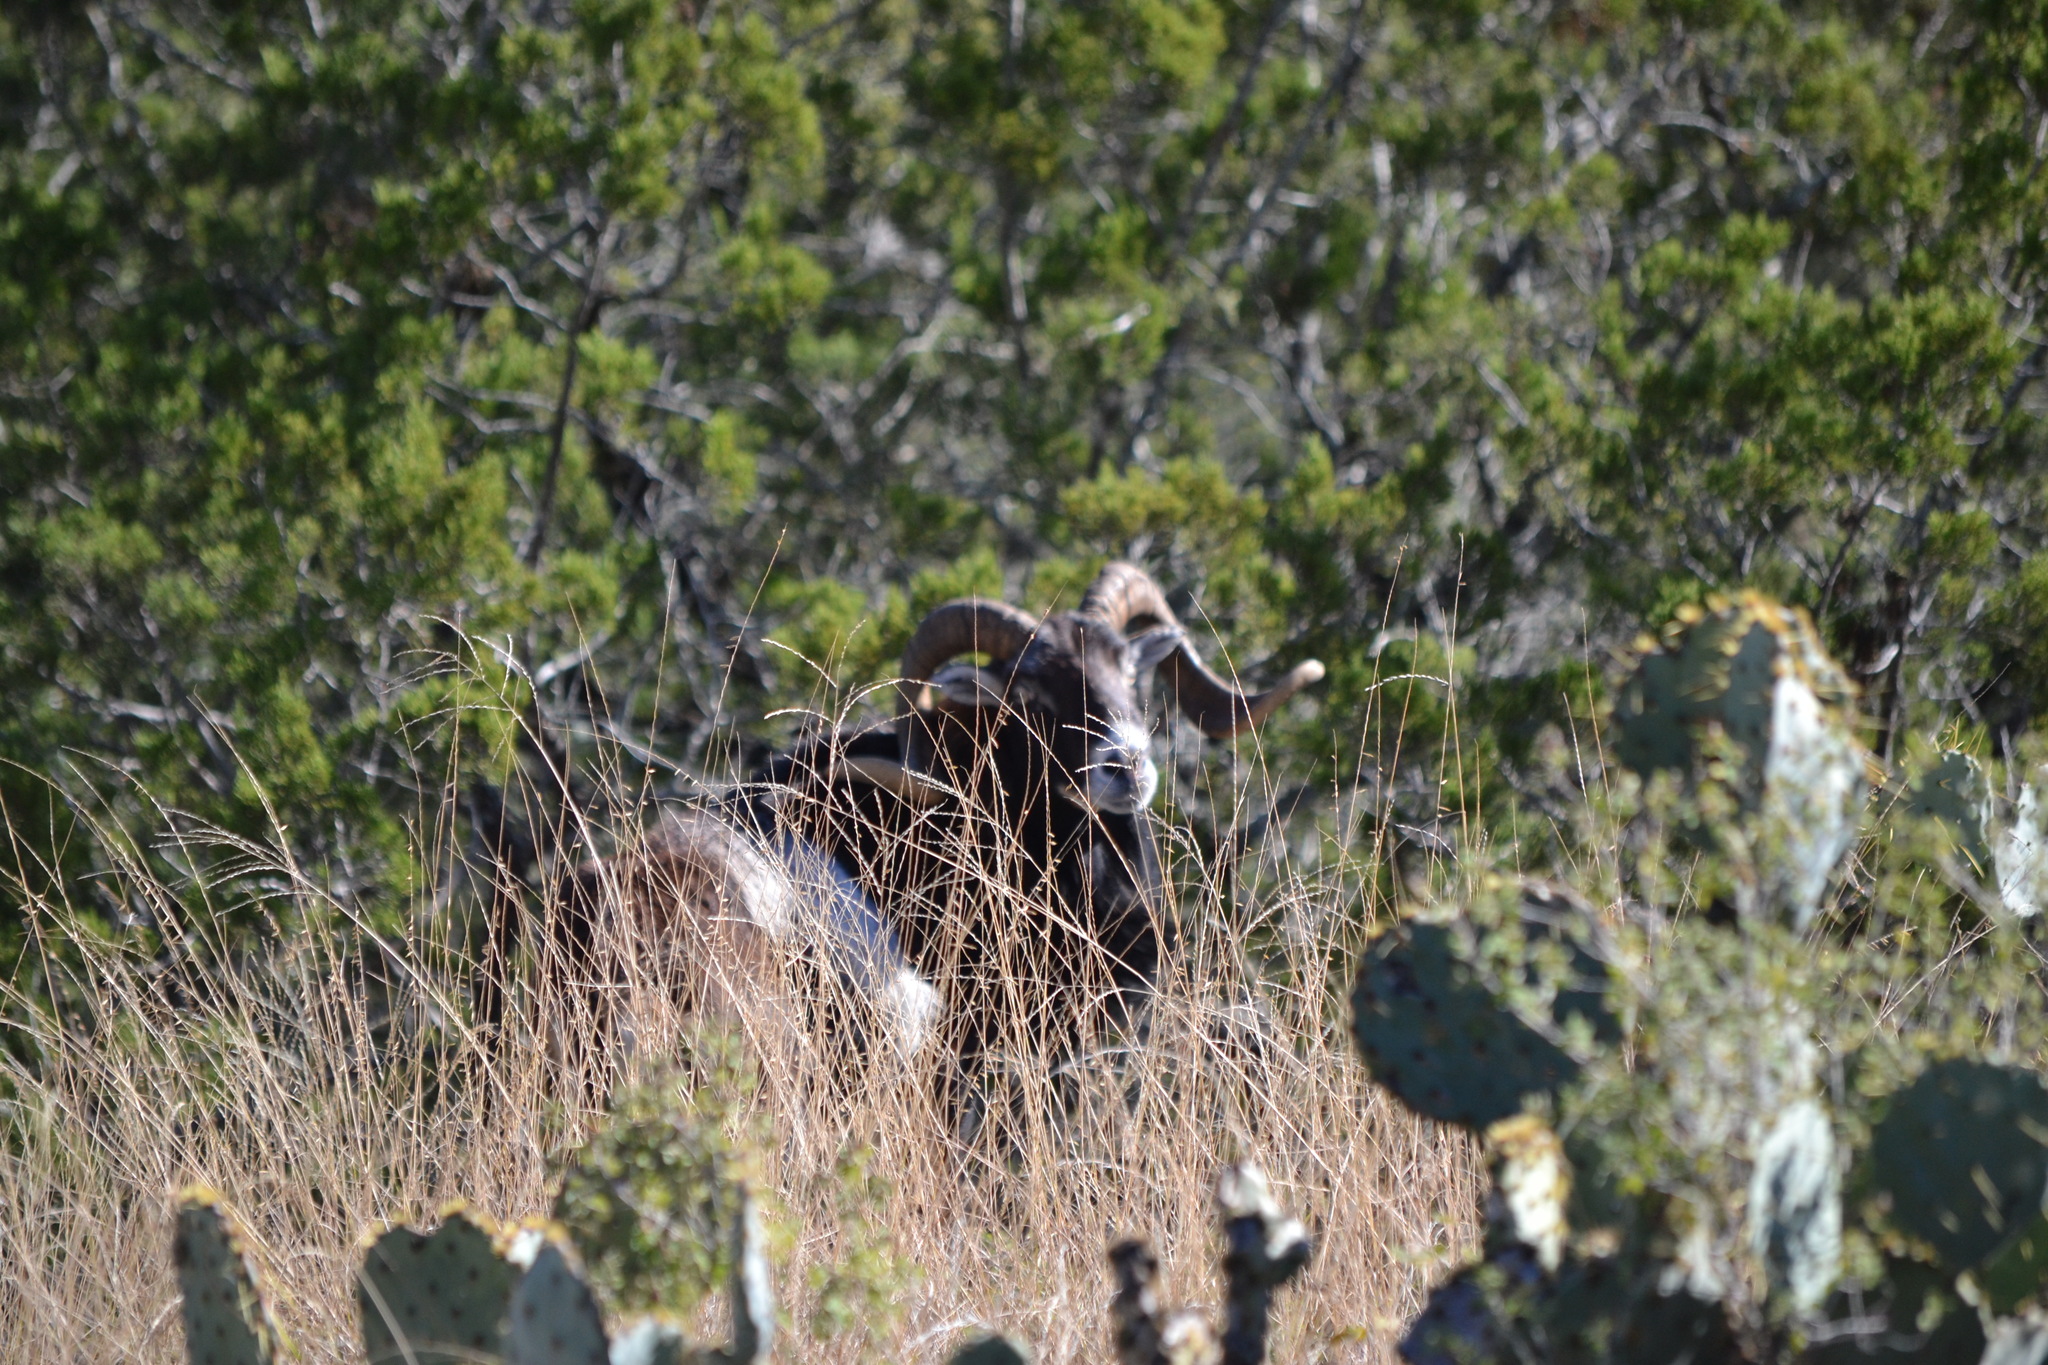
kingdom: Animalia
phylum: Chordata
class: Mammalia
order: Artiodactyla
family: Bovidae
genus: Ovis
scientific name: Ovis aries
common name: Domestic sheep
